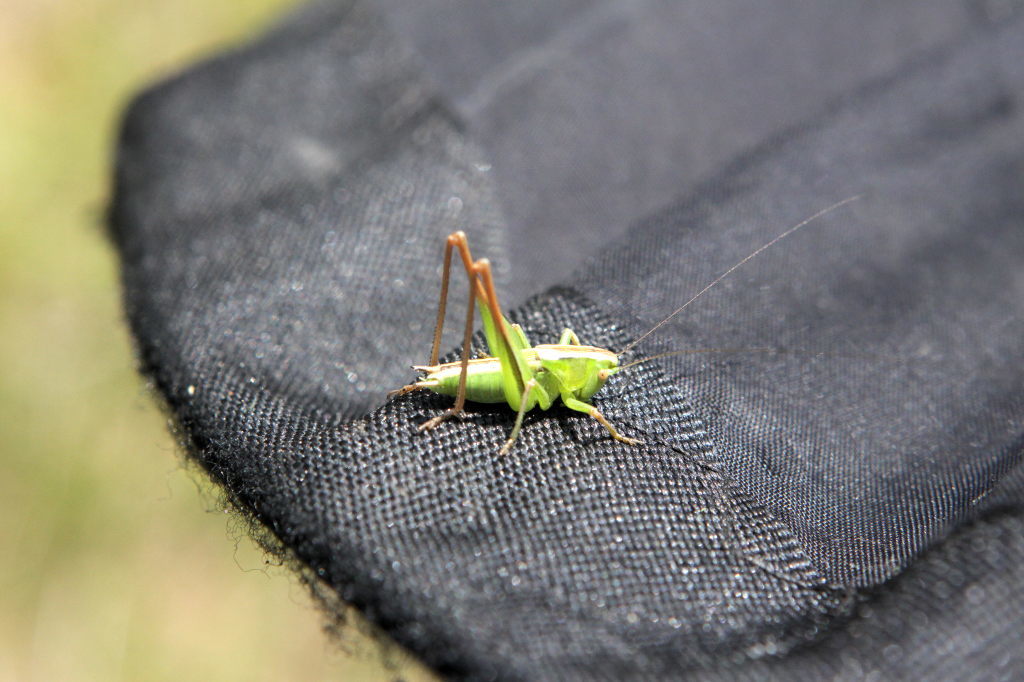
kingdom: Animalia
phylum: Arthropoda
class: Insecta
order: Orthoptera
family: Tettigoniidae
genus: Bicolorana
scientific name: Bicolorana bicolor
